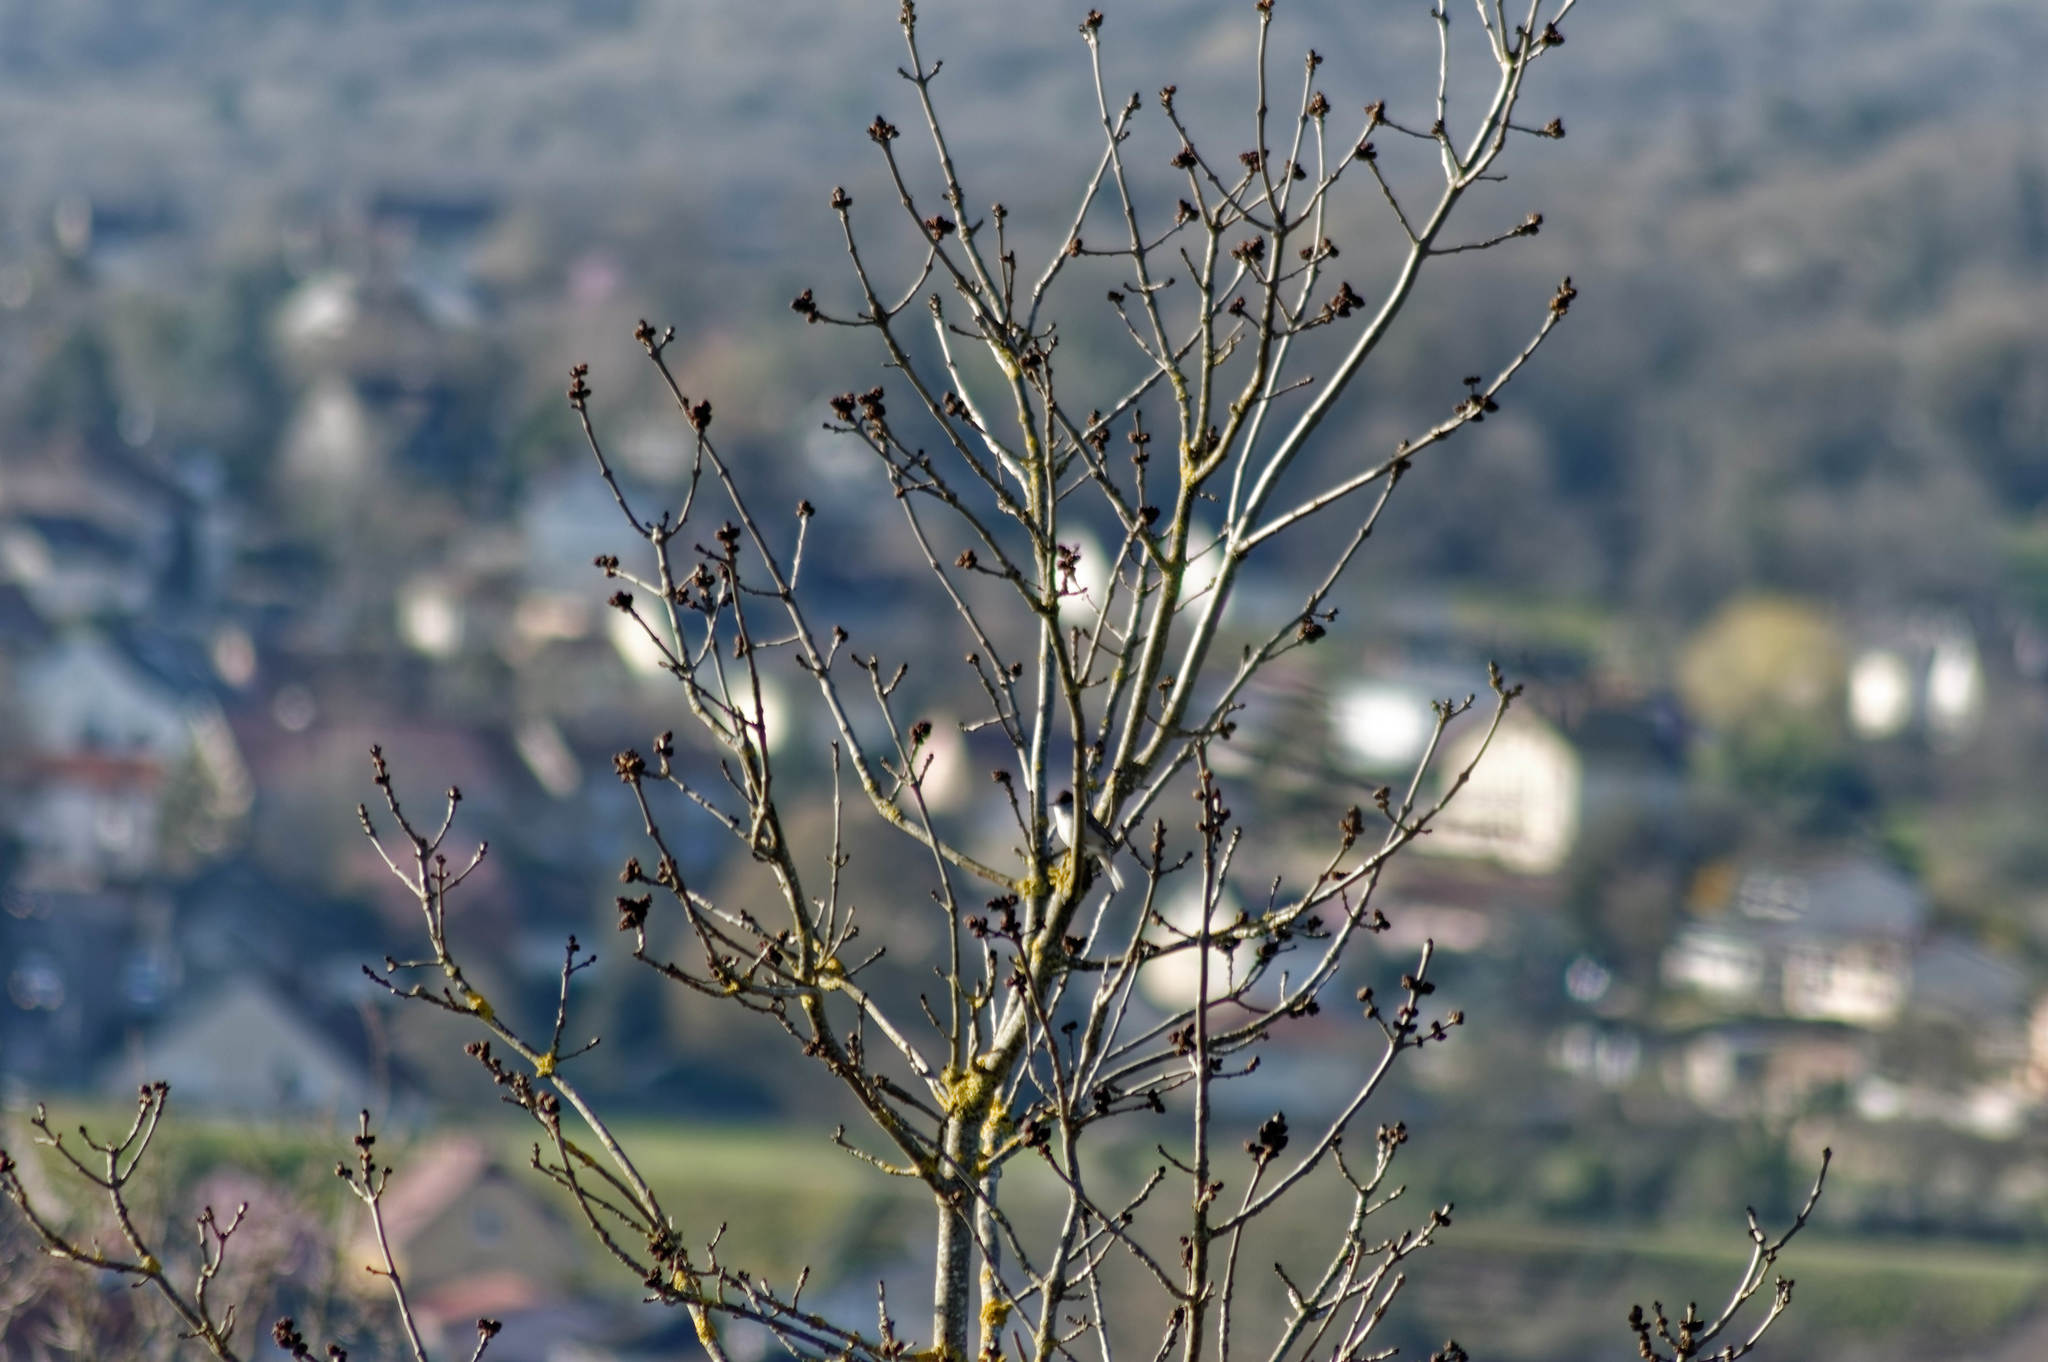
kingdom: Animalia
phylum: Chordata
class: Aves
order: Passeriformes
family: Sylviidae
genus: Sylvia
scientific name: Sylvia atricapilla
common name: Eurasian blackcap
